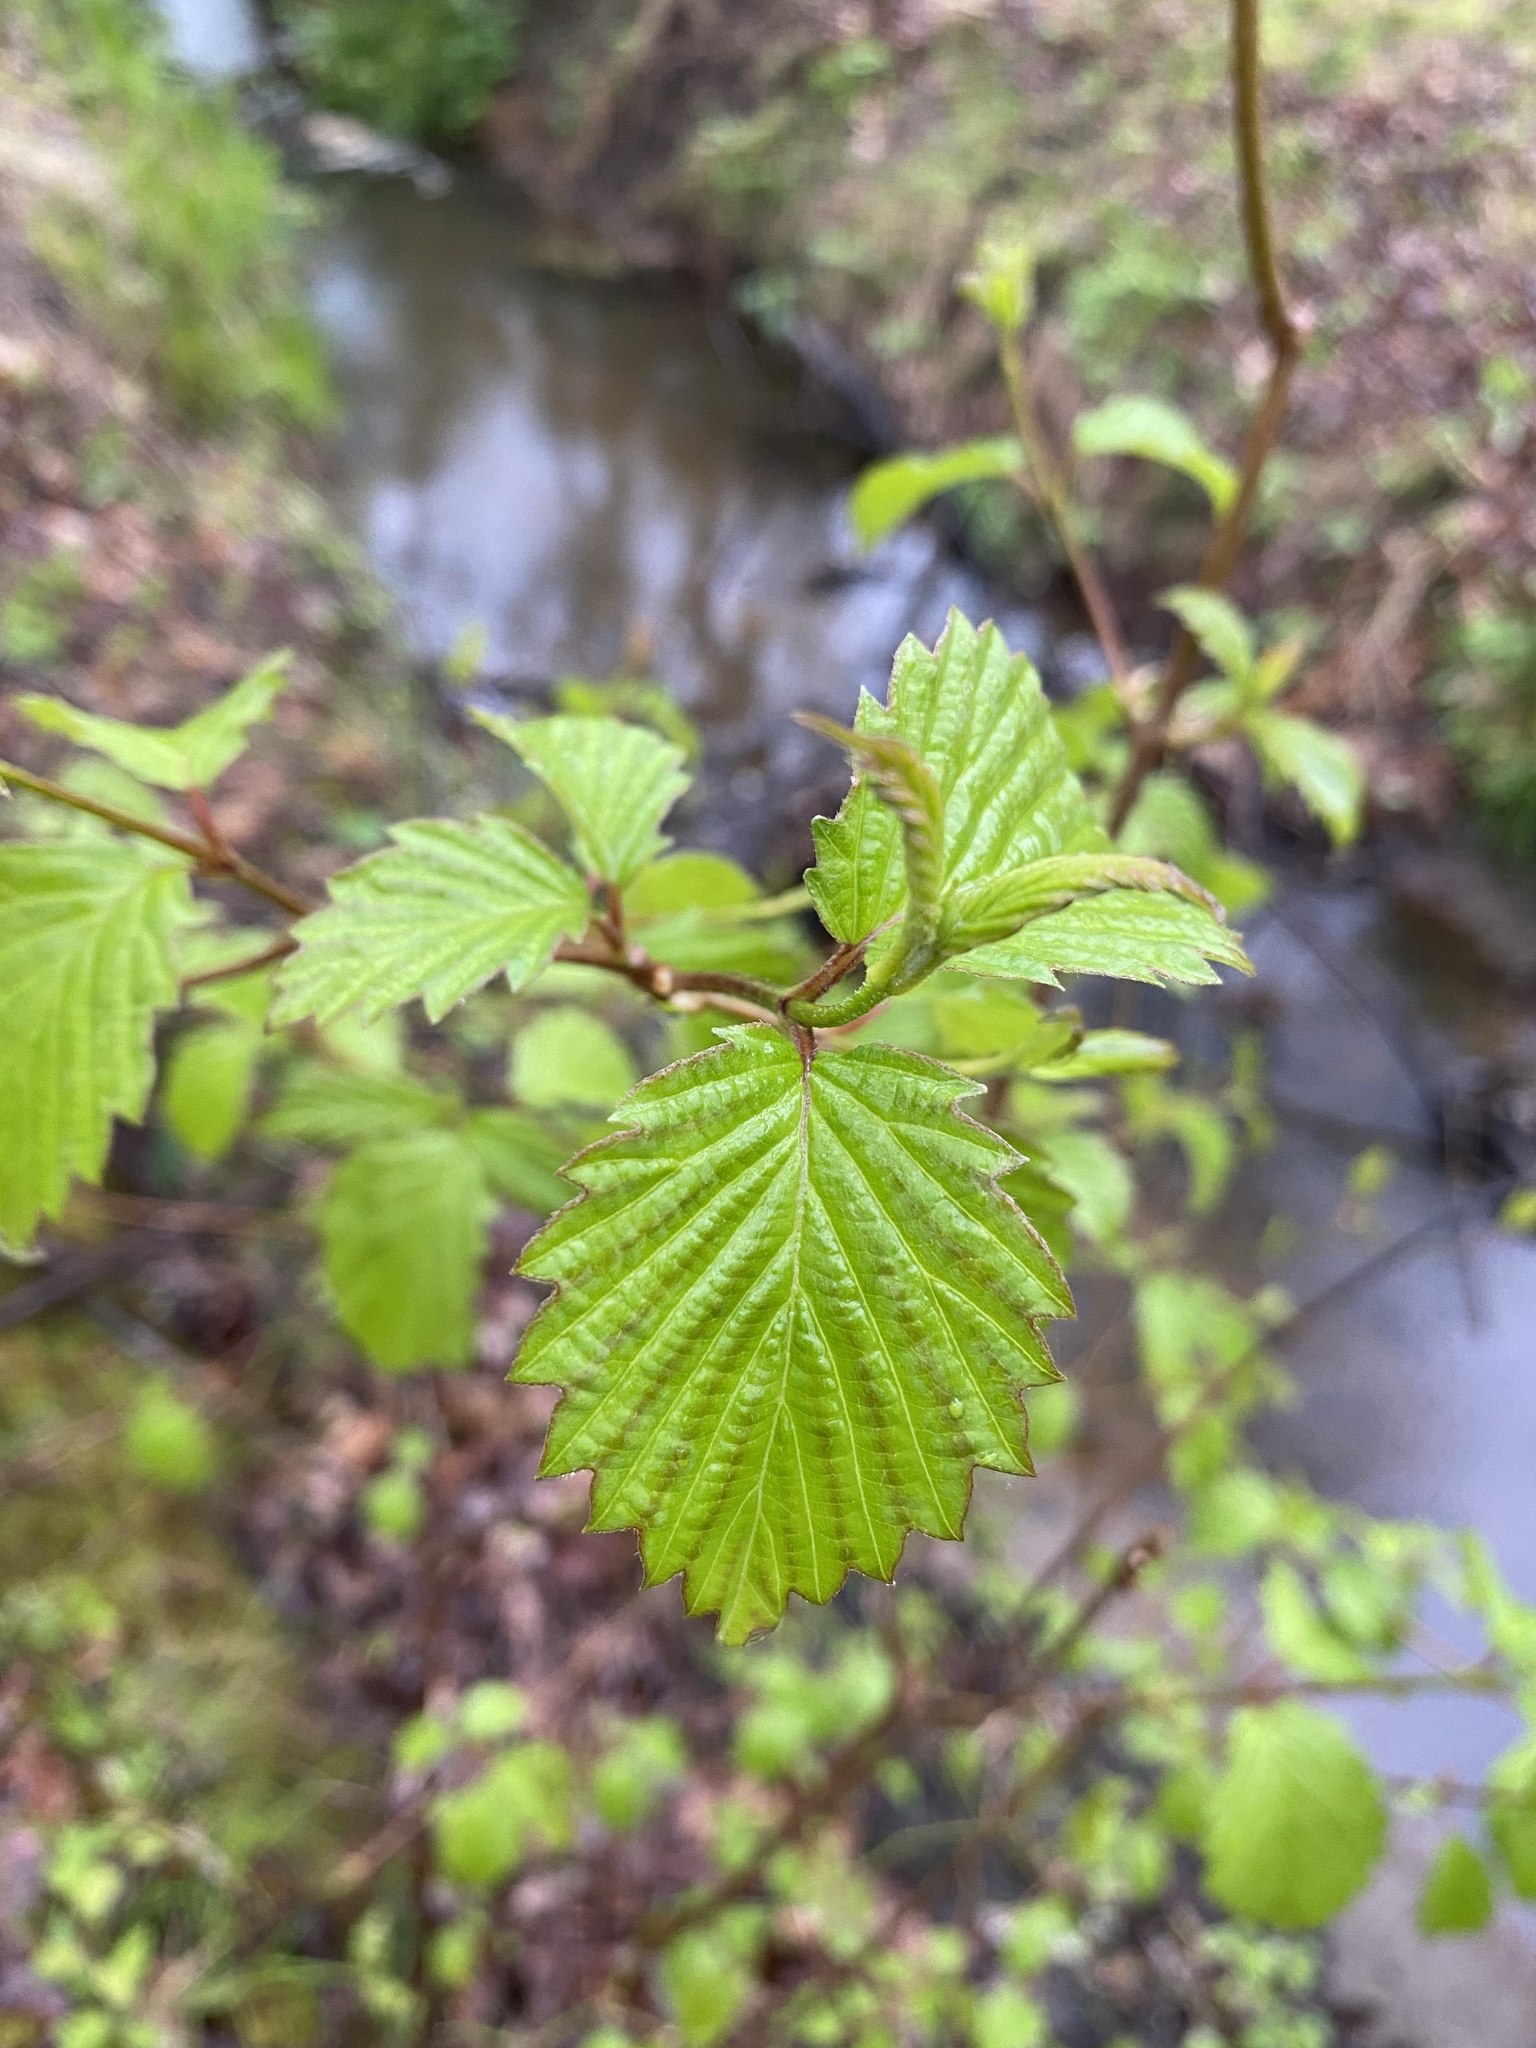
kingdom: Plantae
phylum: Tracheophyta
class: Magnoliopsida
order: Dipsacales
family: Viburnaceae
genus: Viburnum
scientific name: Viburnum dentatum
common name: Arrow-wood
